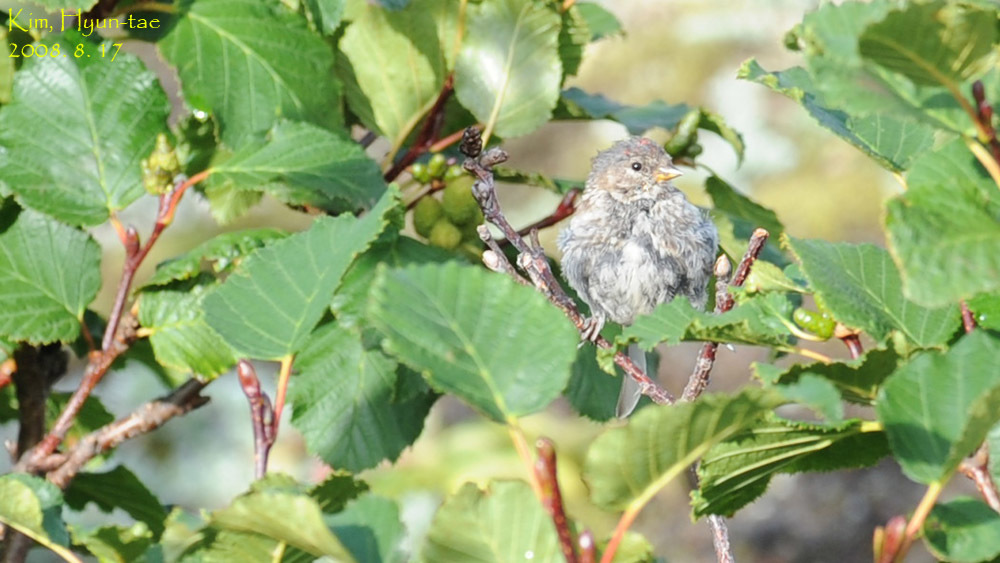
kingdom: Animalia
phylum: Chordata
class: Aves
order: Passeriformes
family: Fringillidae
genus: Acanthis
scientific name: Acanthis flammea
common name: Common redpoll
